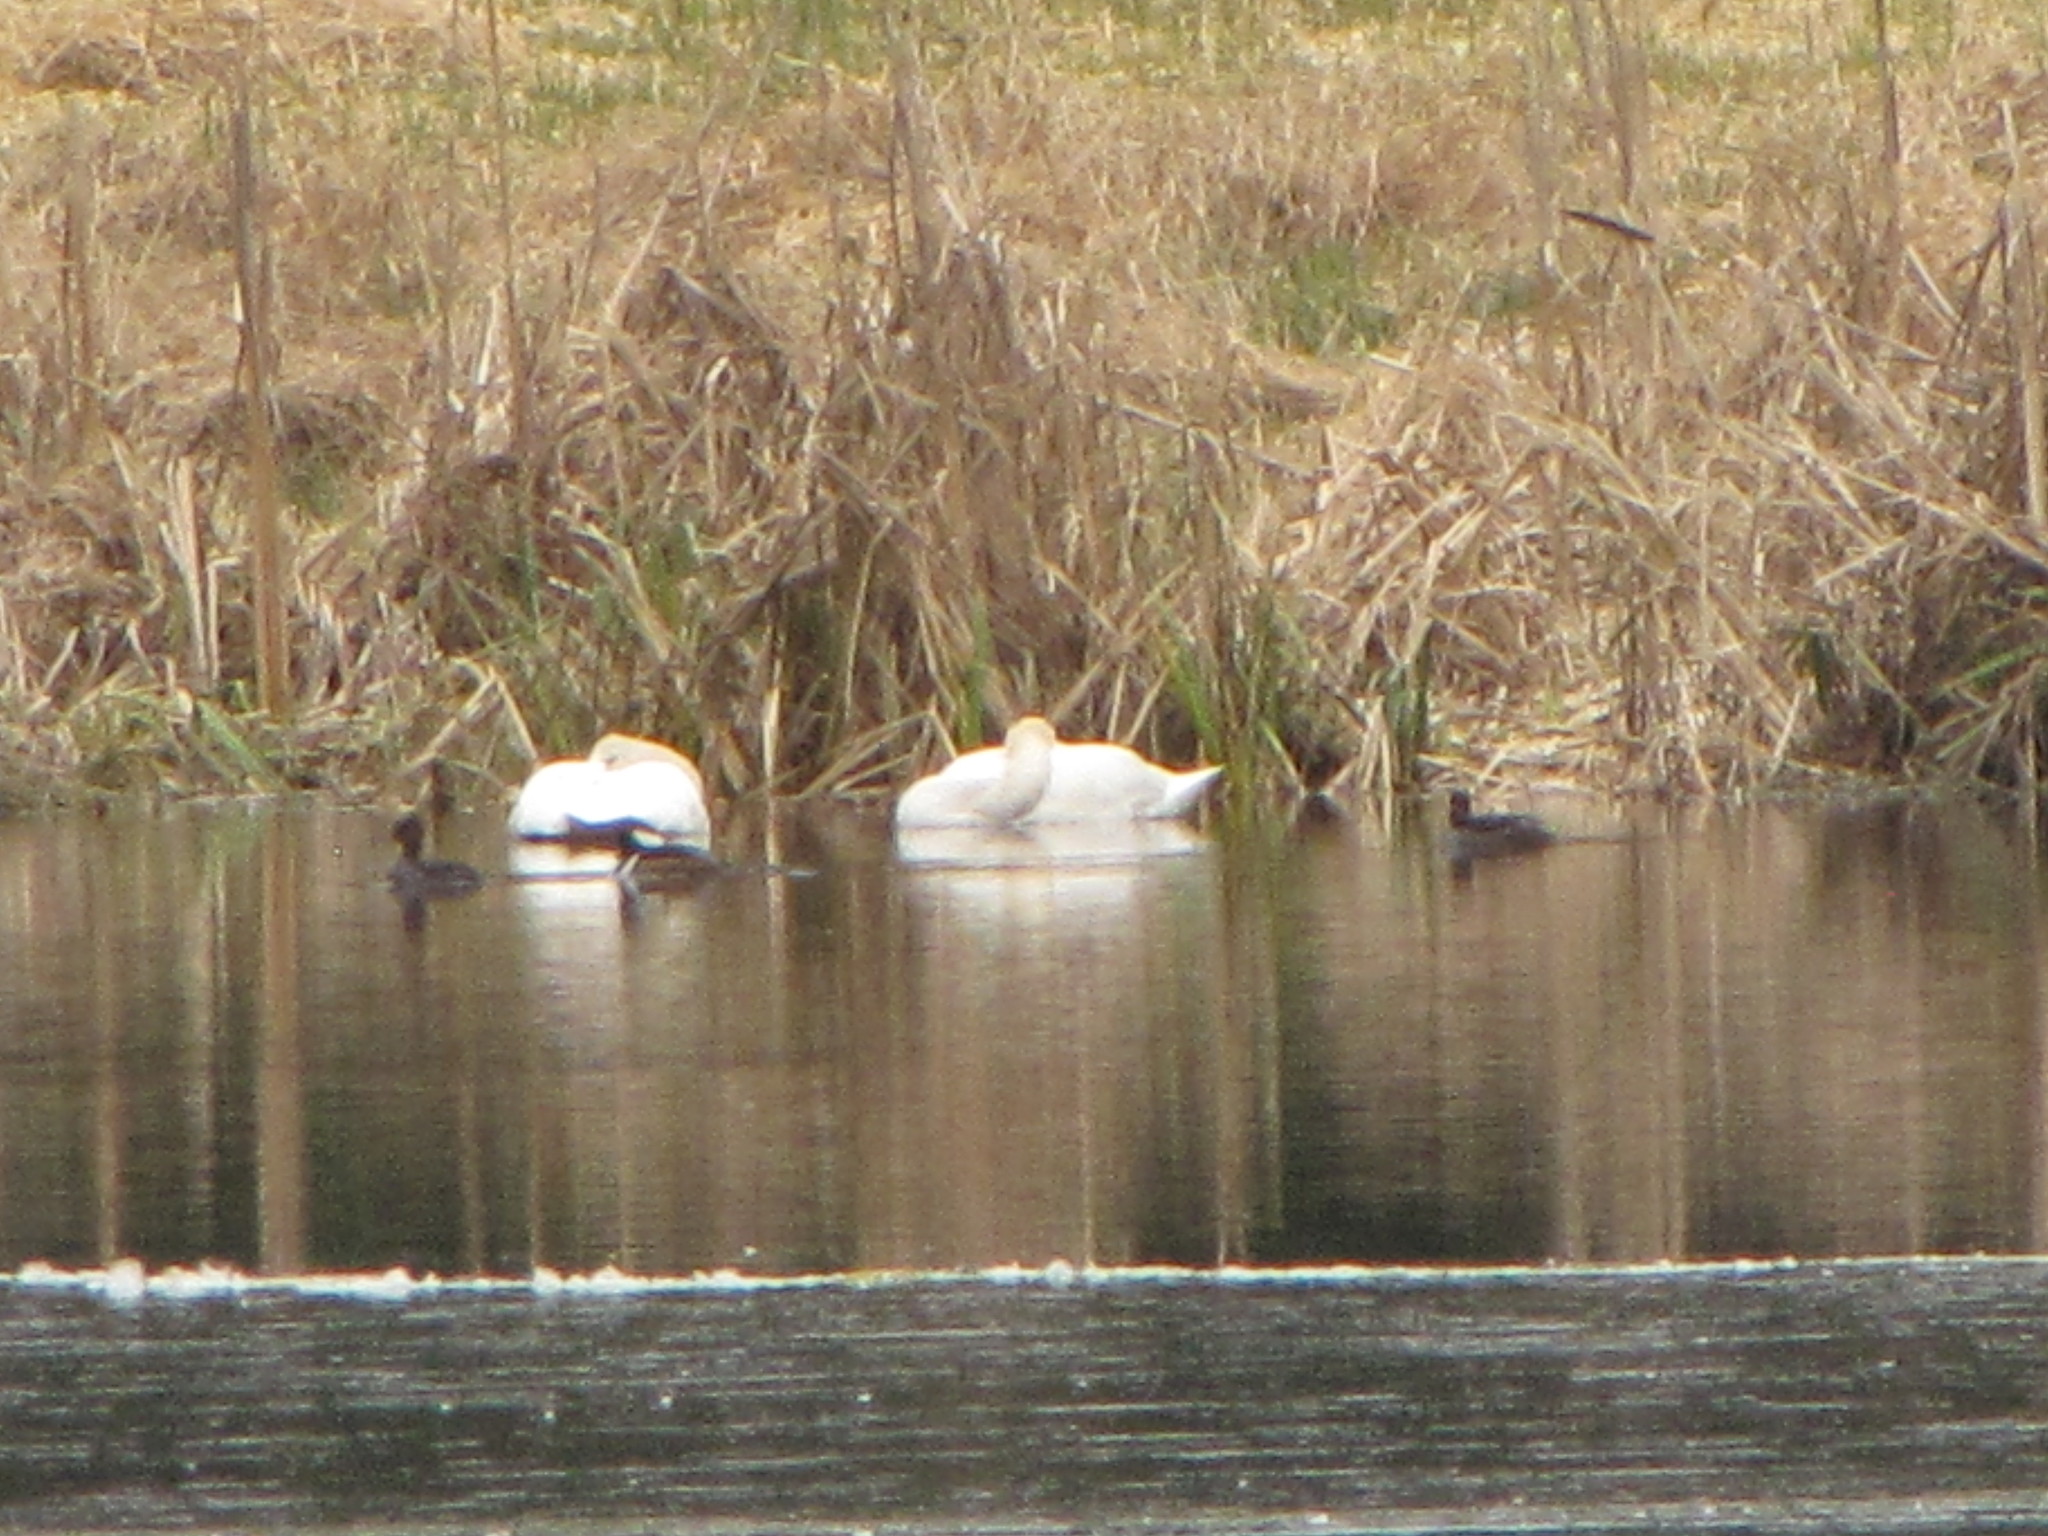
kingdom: Animalia
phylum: Chordata
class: Aves
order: Anseriformes
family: Anatidae
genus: Lophodytes
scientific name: Lophodytes cucullatus
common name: Hooded merganser
